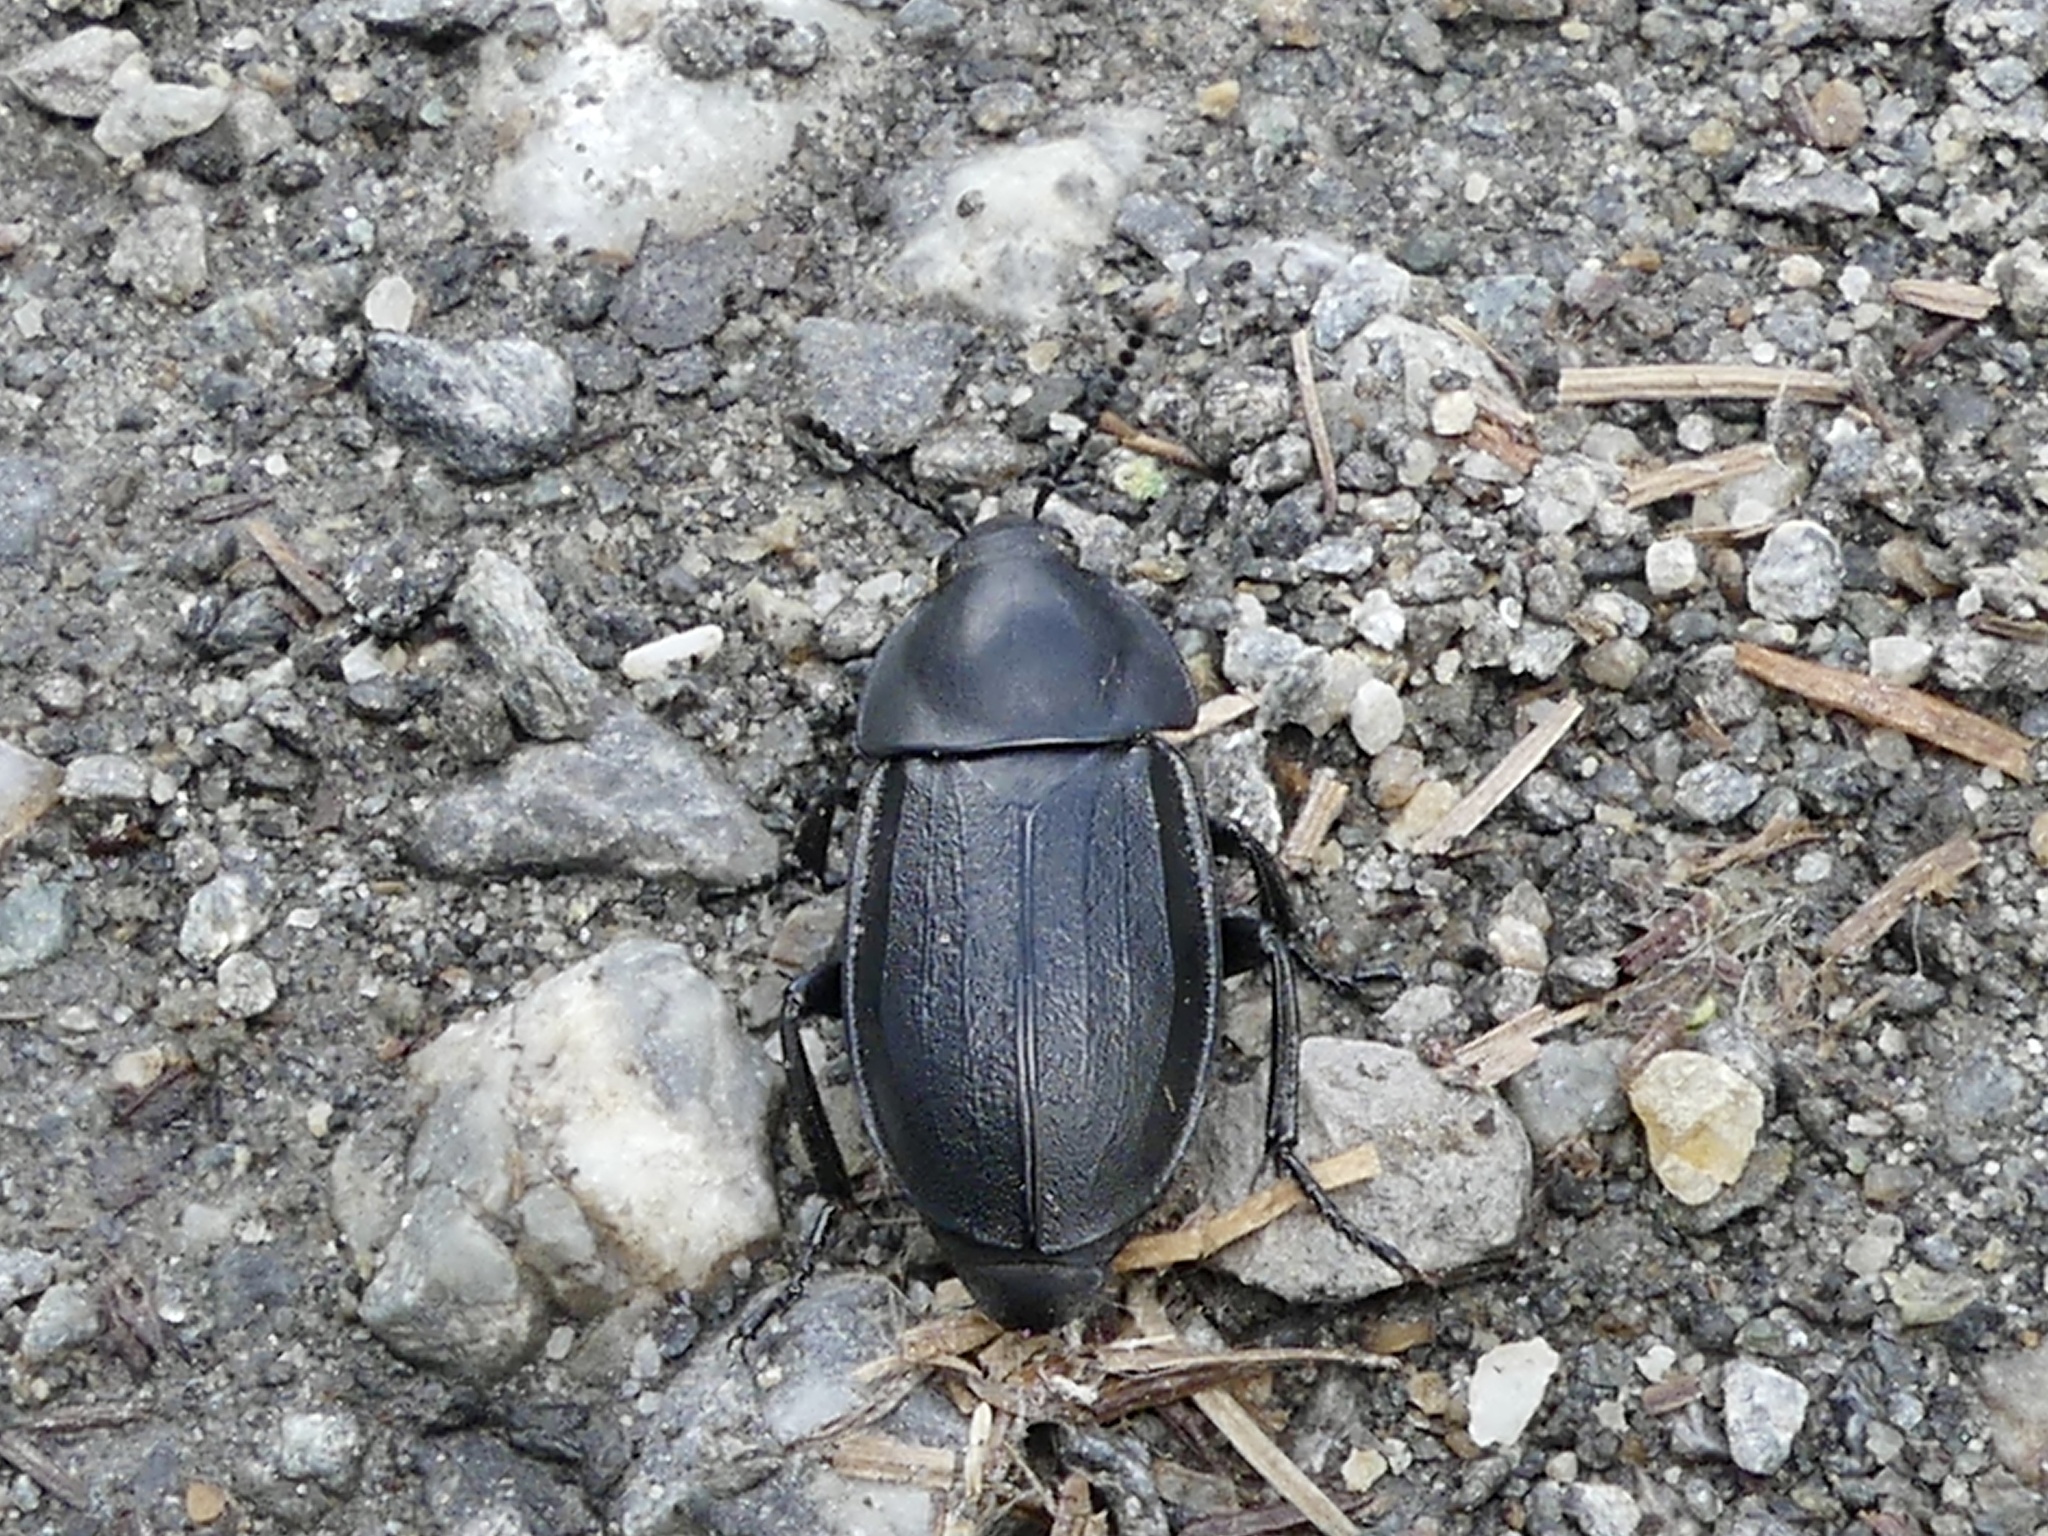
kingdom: Animalia
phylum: Arthropoda
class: Insecta
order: Coleoptera
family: Staphylinidae
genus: Silpha
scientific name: Silpha tyrolensis
